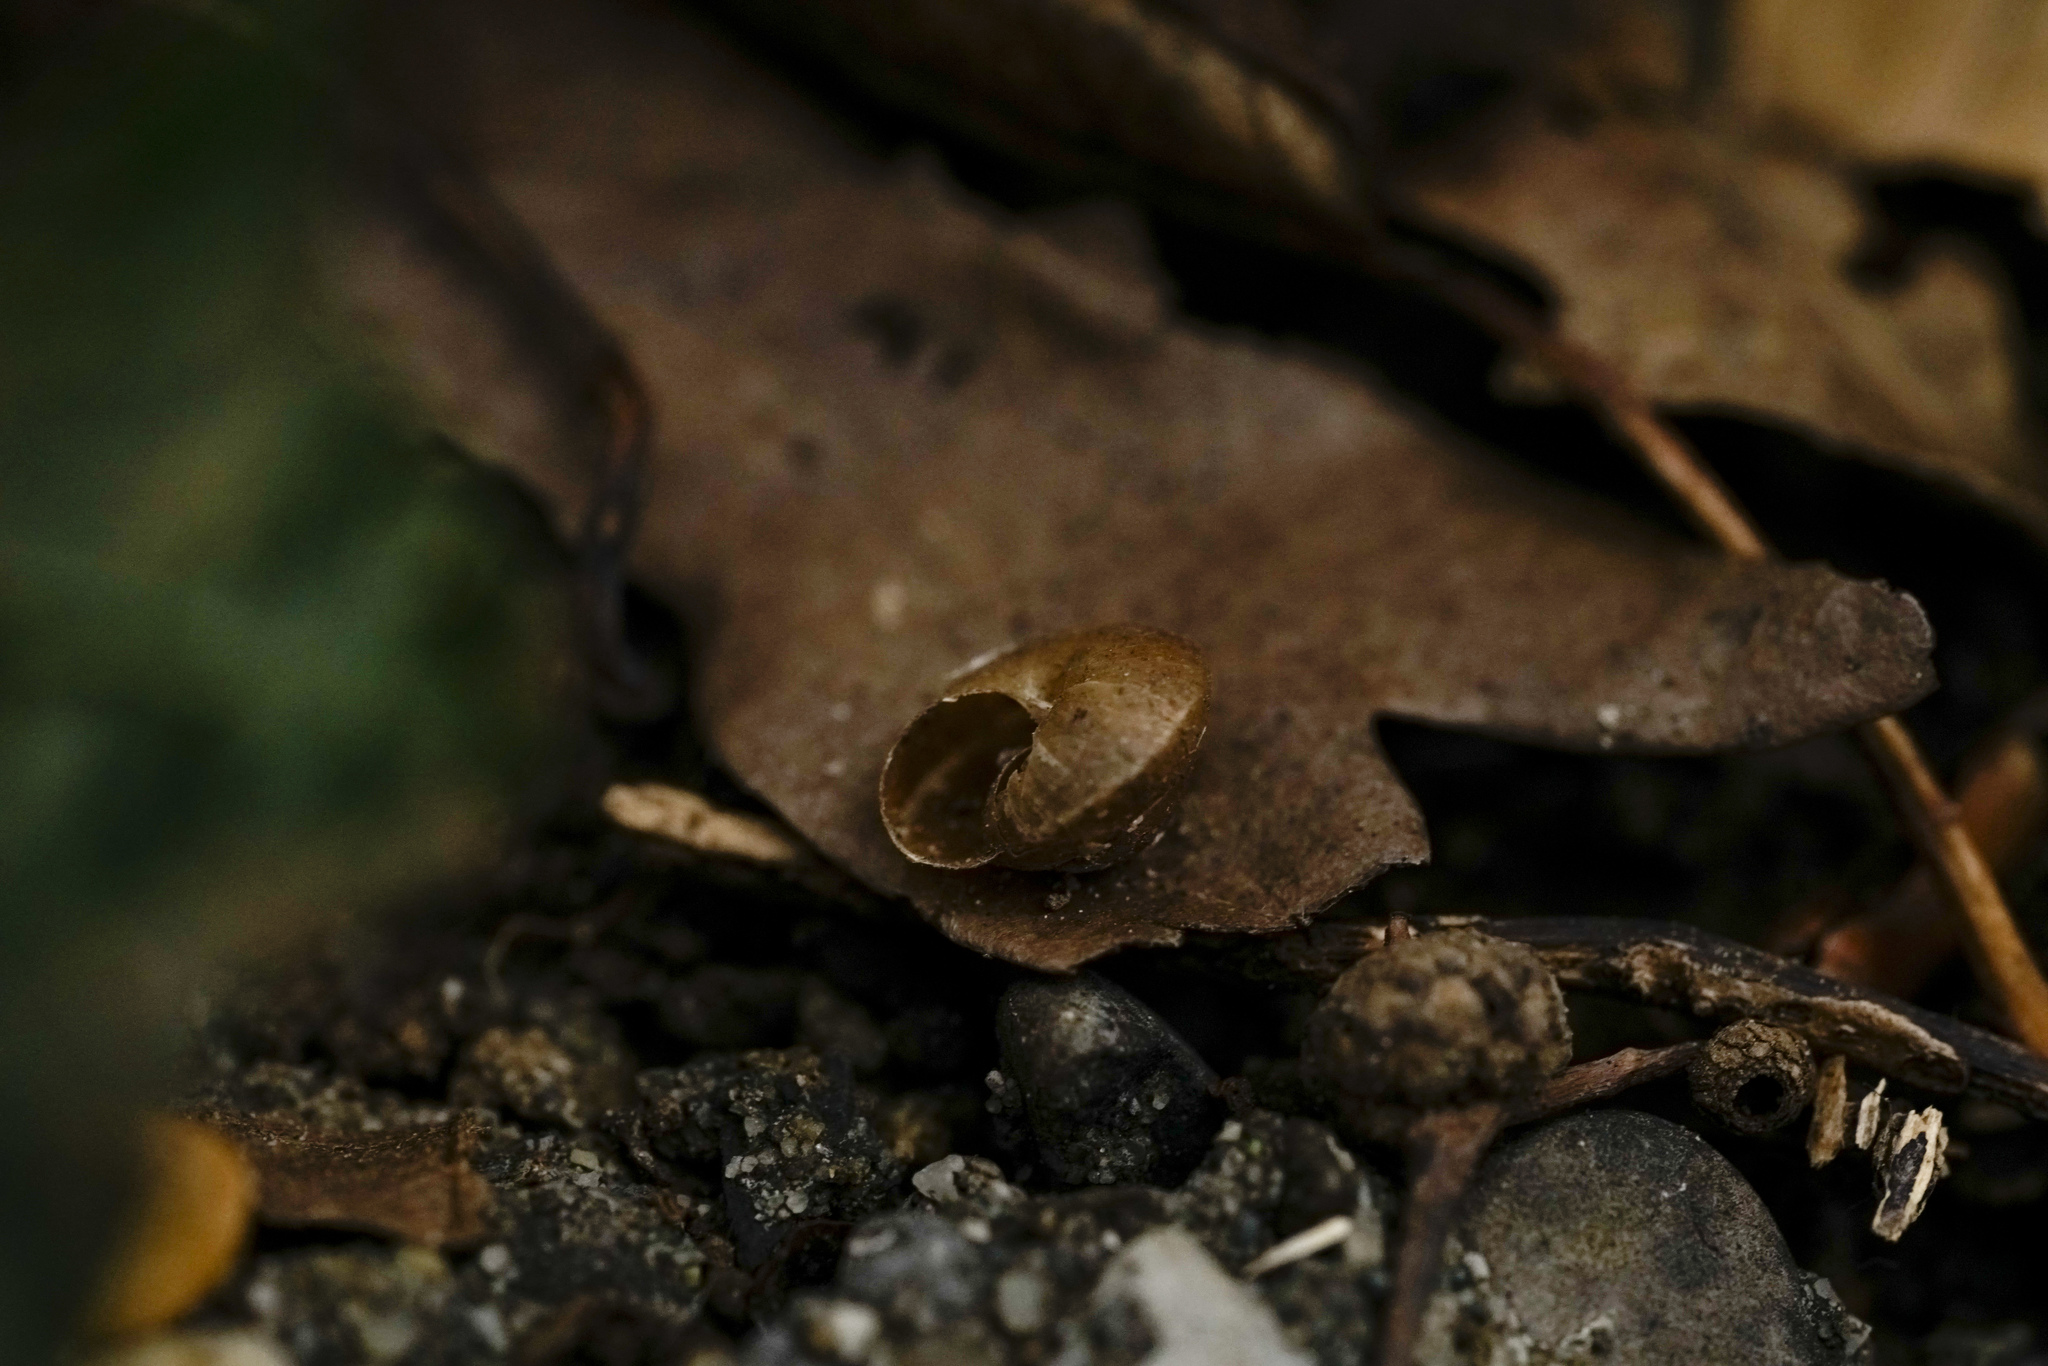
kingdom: Animalia
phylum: Mollusca
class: Gastropoda
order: Stylommatophora
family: Hygromiidae
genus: Hygromia
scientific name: Hygromia cinctella
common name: Girdled snail
